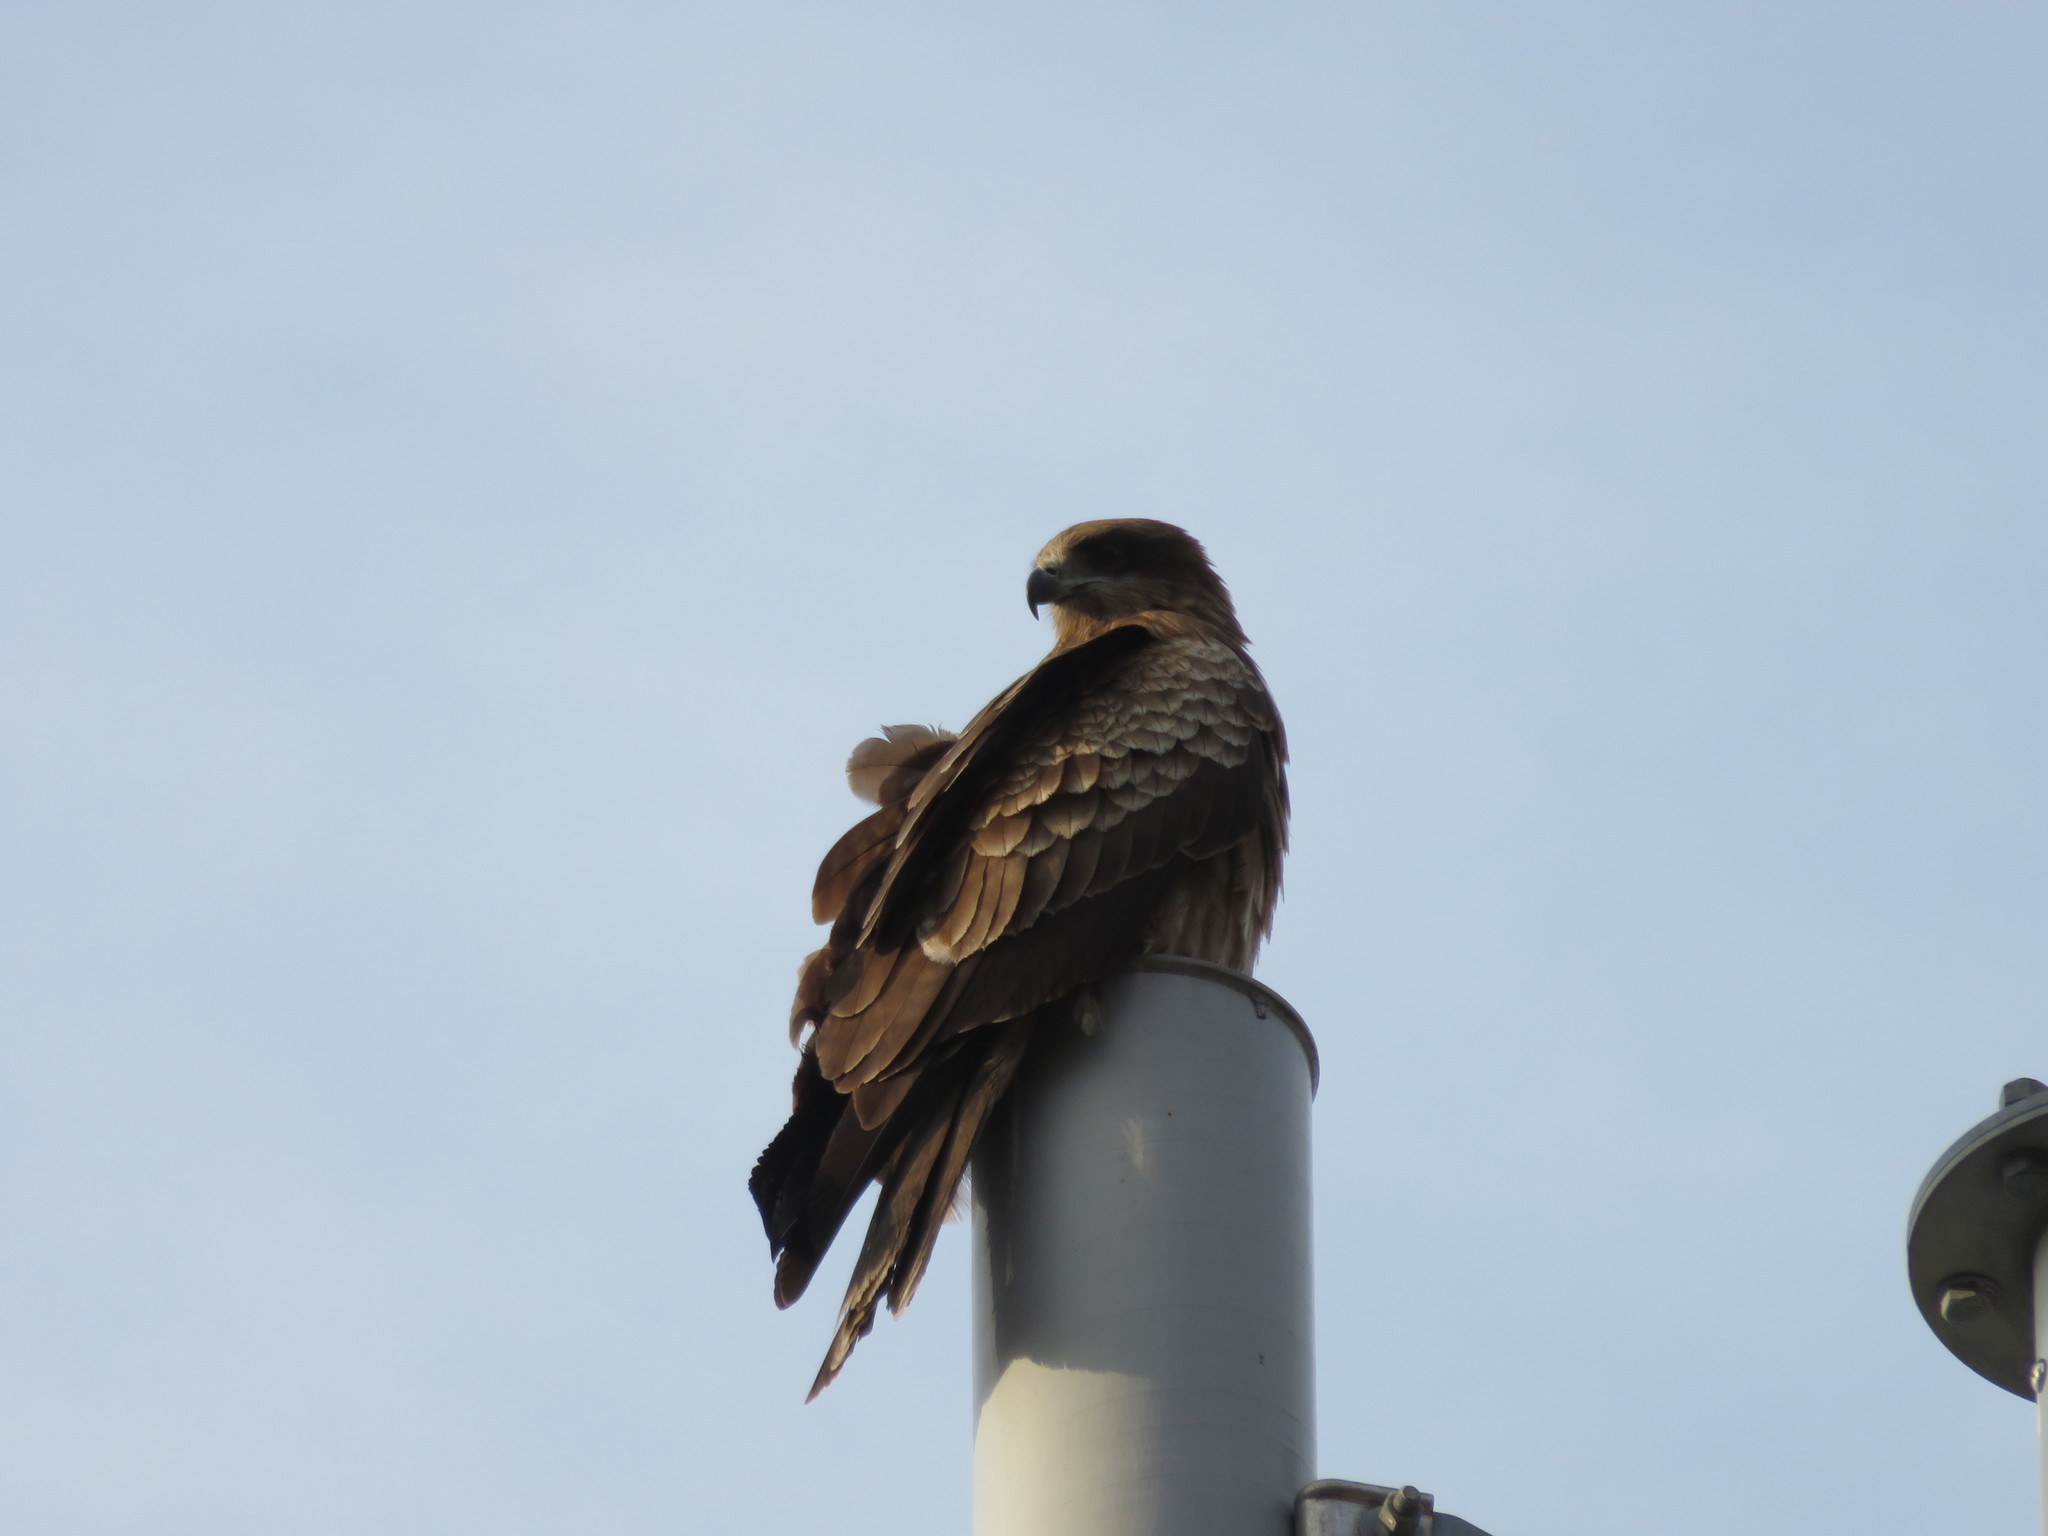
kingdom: Animalia
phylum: Chordata
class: Aves
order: Accipitriformes
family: Accipitridae
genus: Milvus
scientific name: Milvus migrans
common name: Black kite
